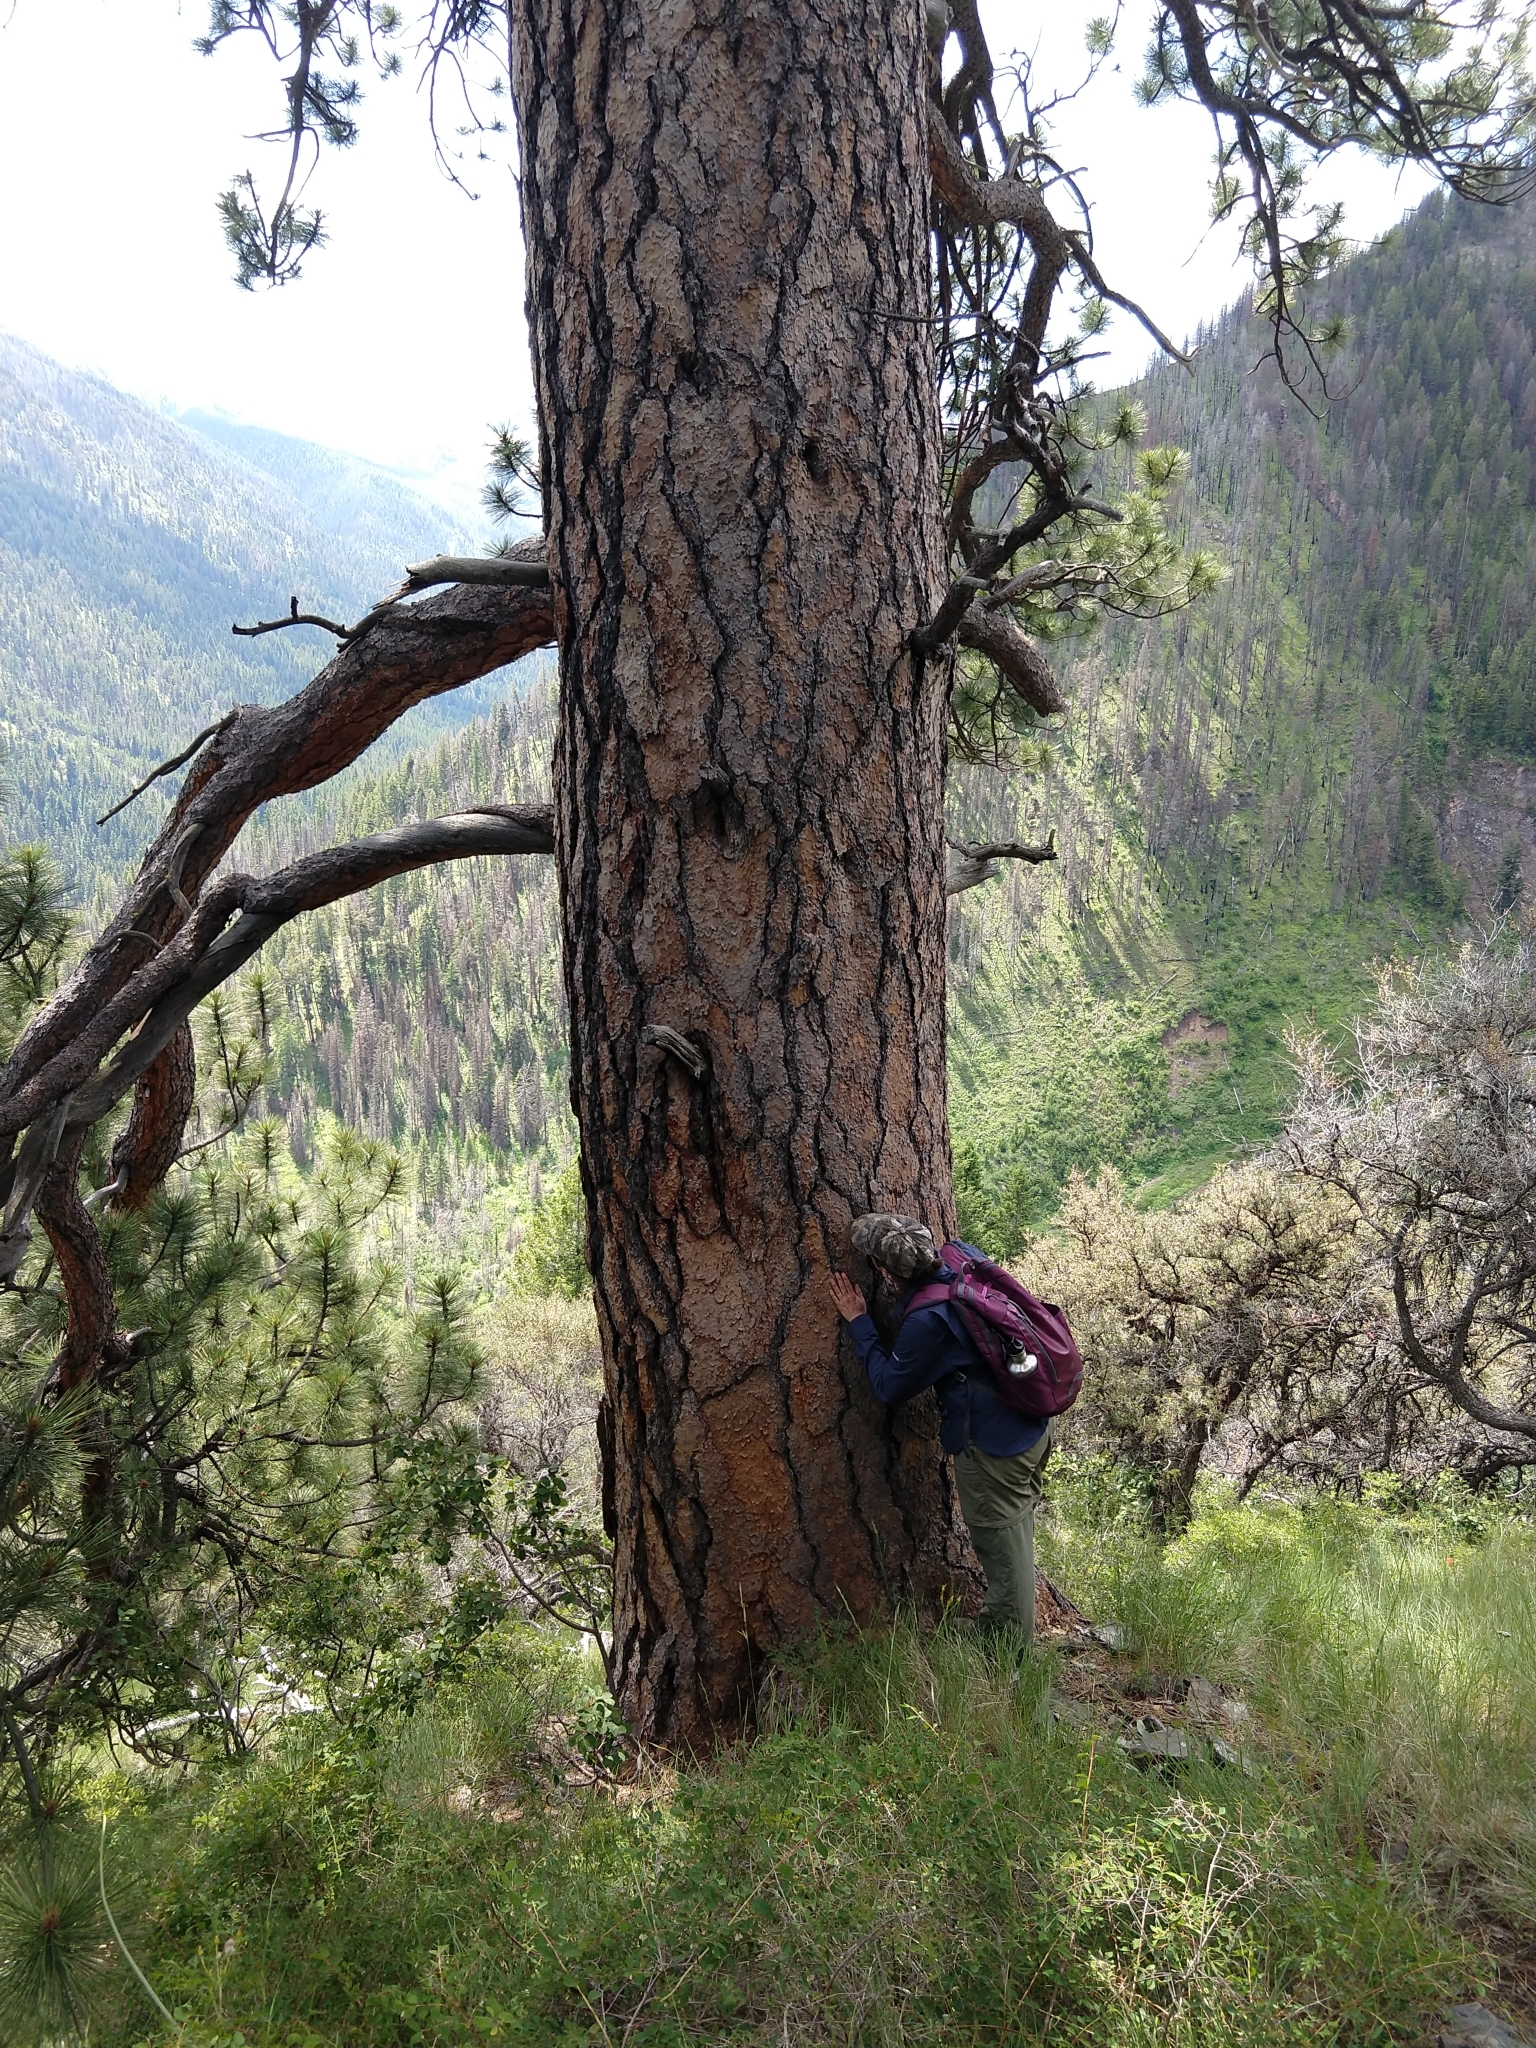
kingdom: Plantae
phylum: Tracheophyta
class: Pinopsida
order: Pinales
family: Pinaceae
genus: Pinus
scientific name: Pinus ponderosa
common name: Western yellow-pine
